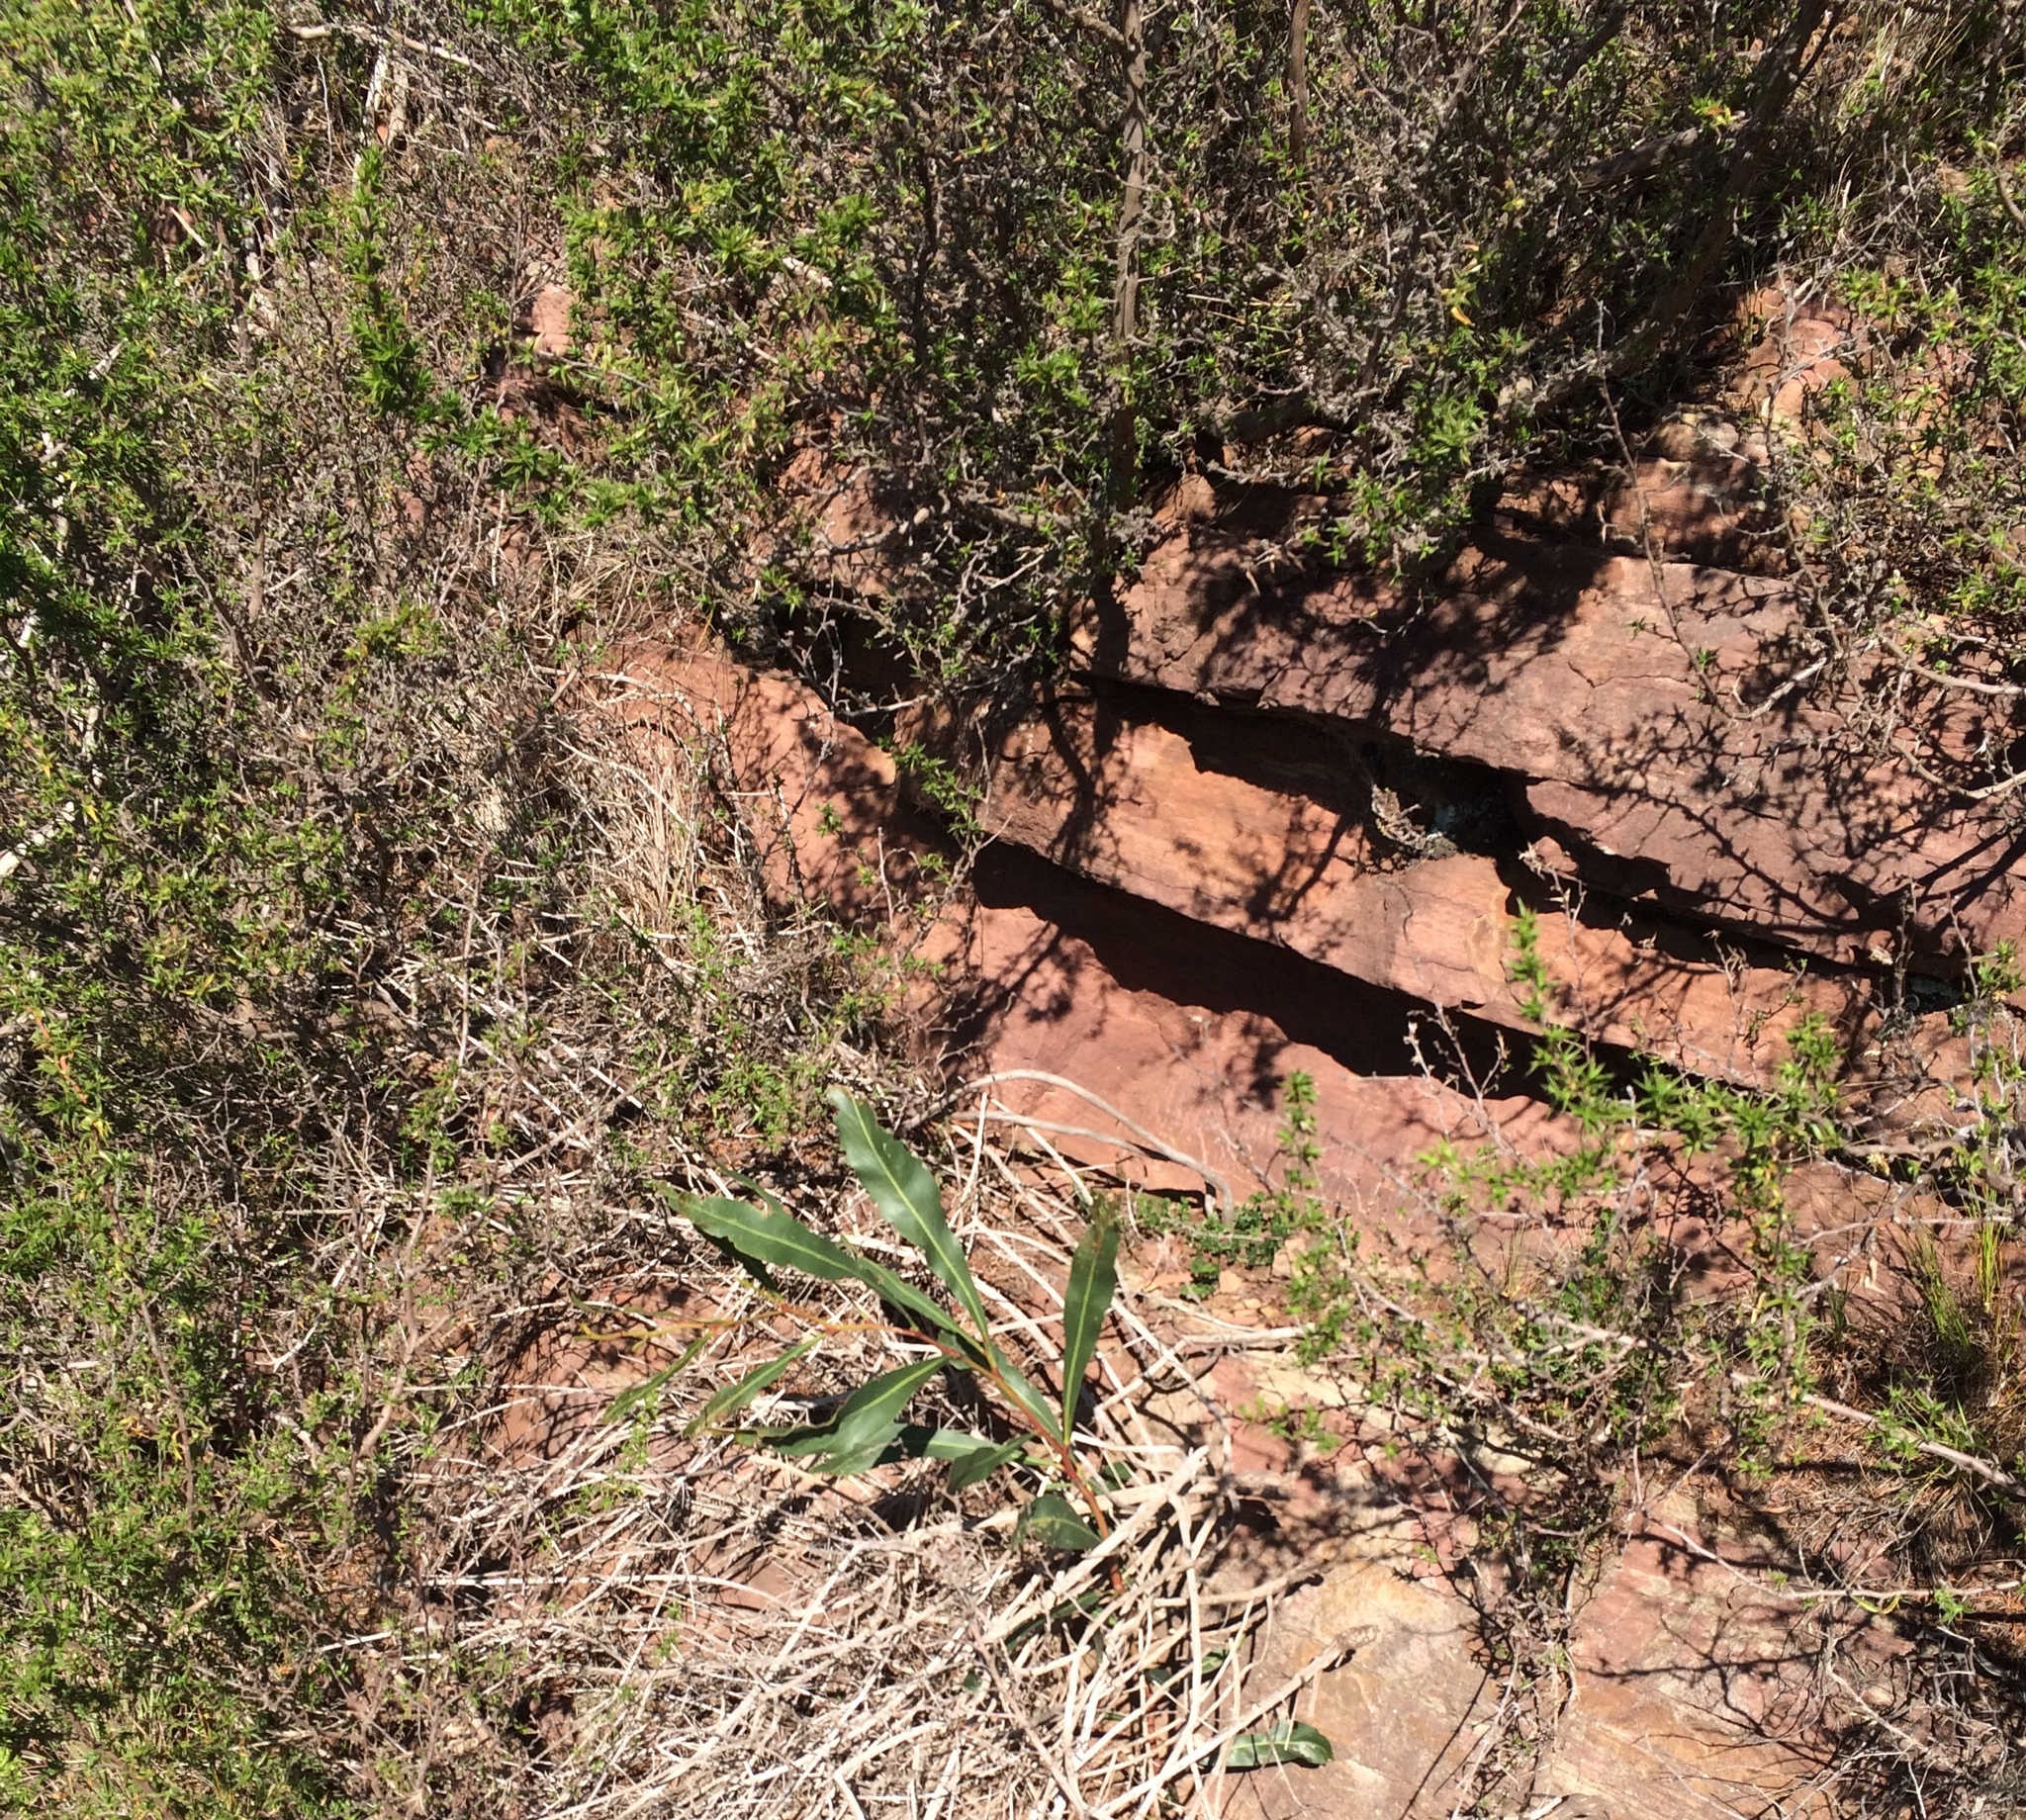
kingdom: Plantae
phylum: Tracheophyta
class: Magnoliopsida
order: Fabales
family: Fabaceae
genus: Acacia
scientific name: Acacia saligna
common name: Orange wattle
